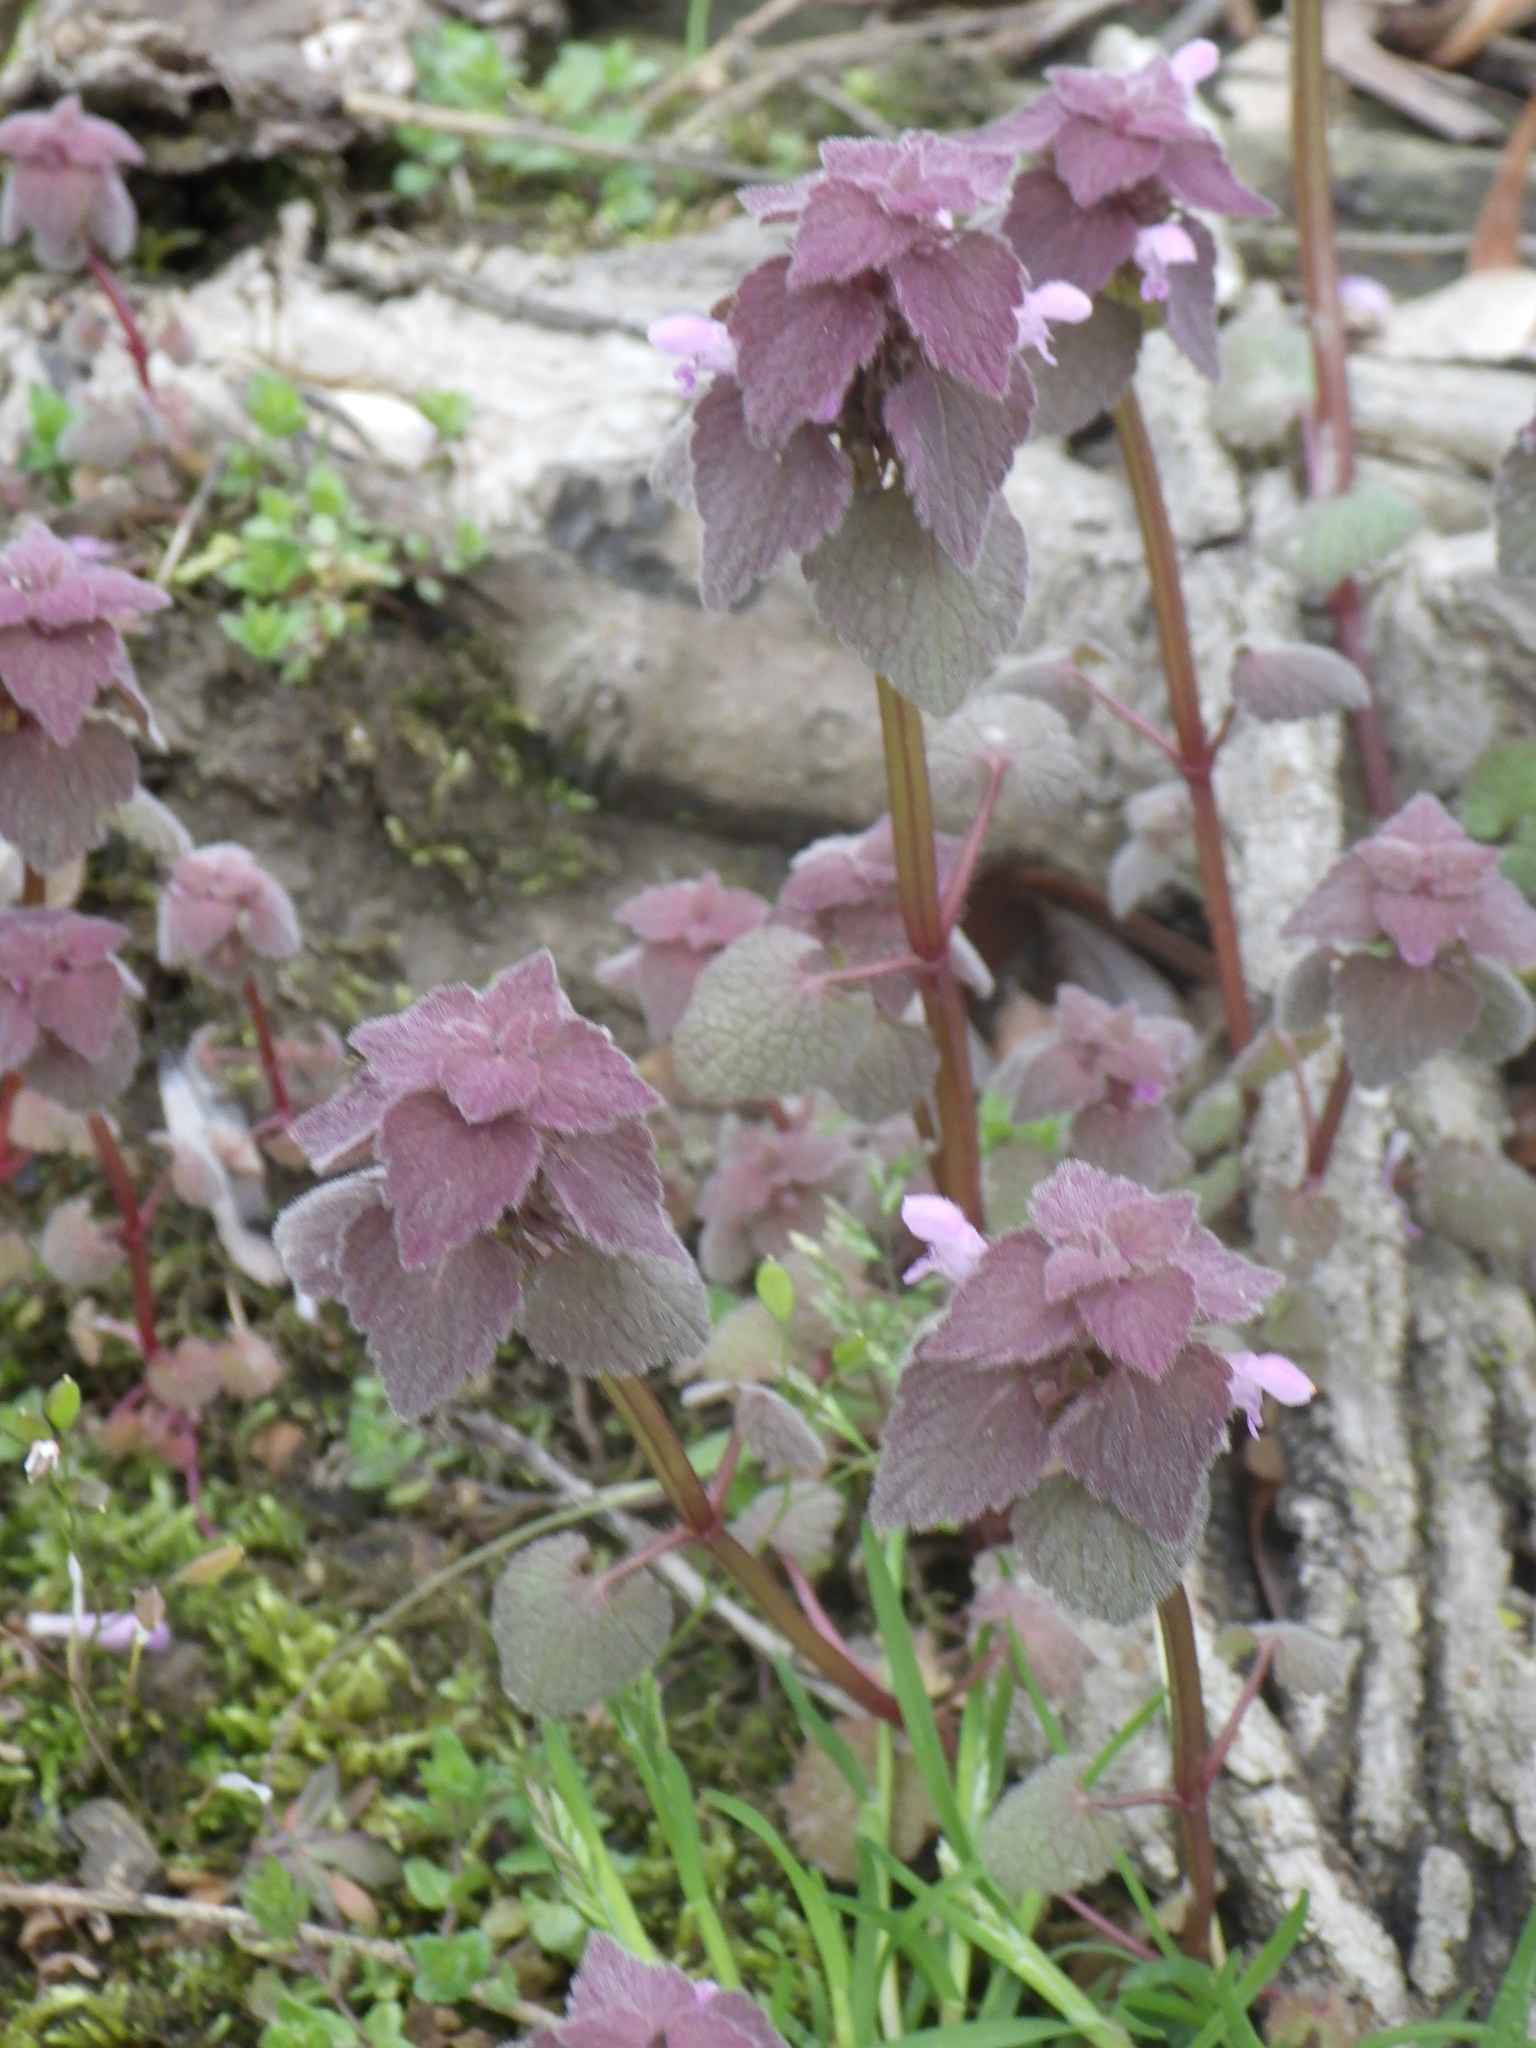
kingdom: Plantae
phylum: Tracheophyta
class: Magnoliopsida
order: Lamiales
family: Lamiaceae
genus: Lamium
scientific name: Lamium purpureum
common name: Red dead-nettle
